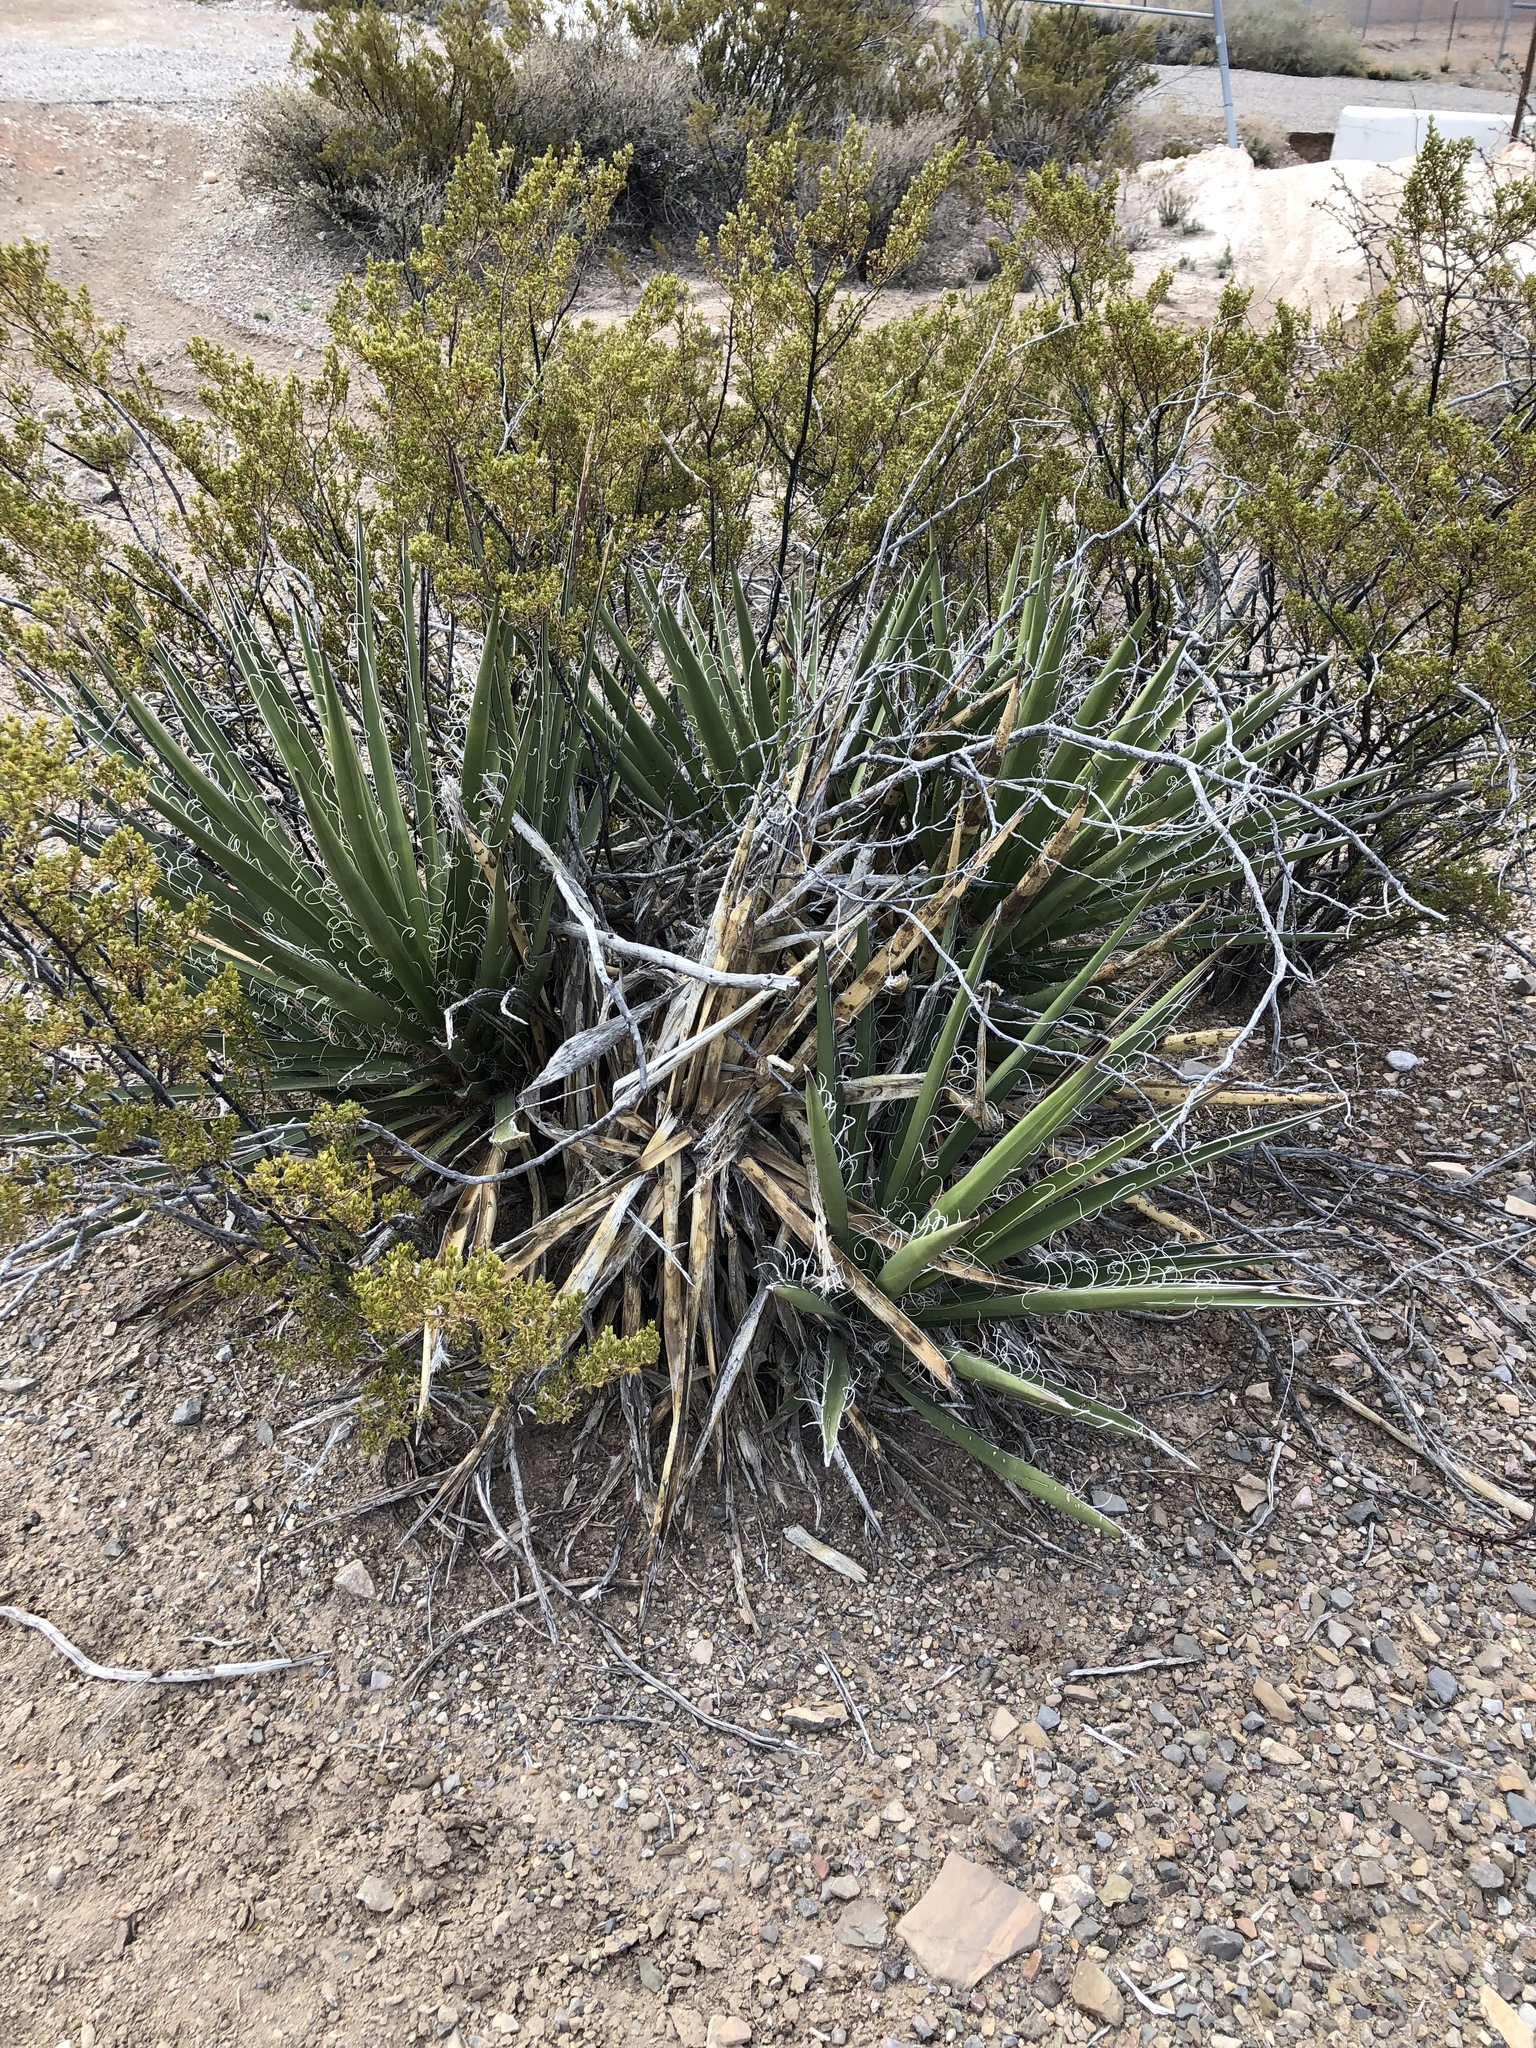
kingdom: Plantae
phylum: Tracheophyta
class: Liliopsida
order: Asparagales
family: Asparagaceae
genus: Yucca
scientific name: Yucca baccata
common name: Banana yucca
